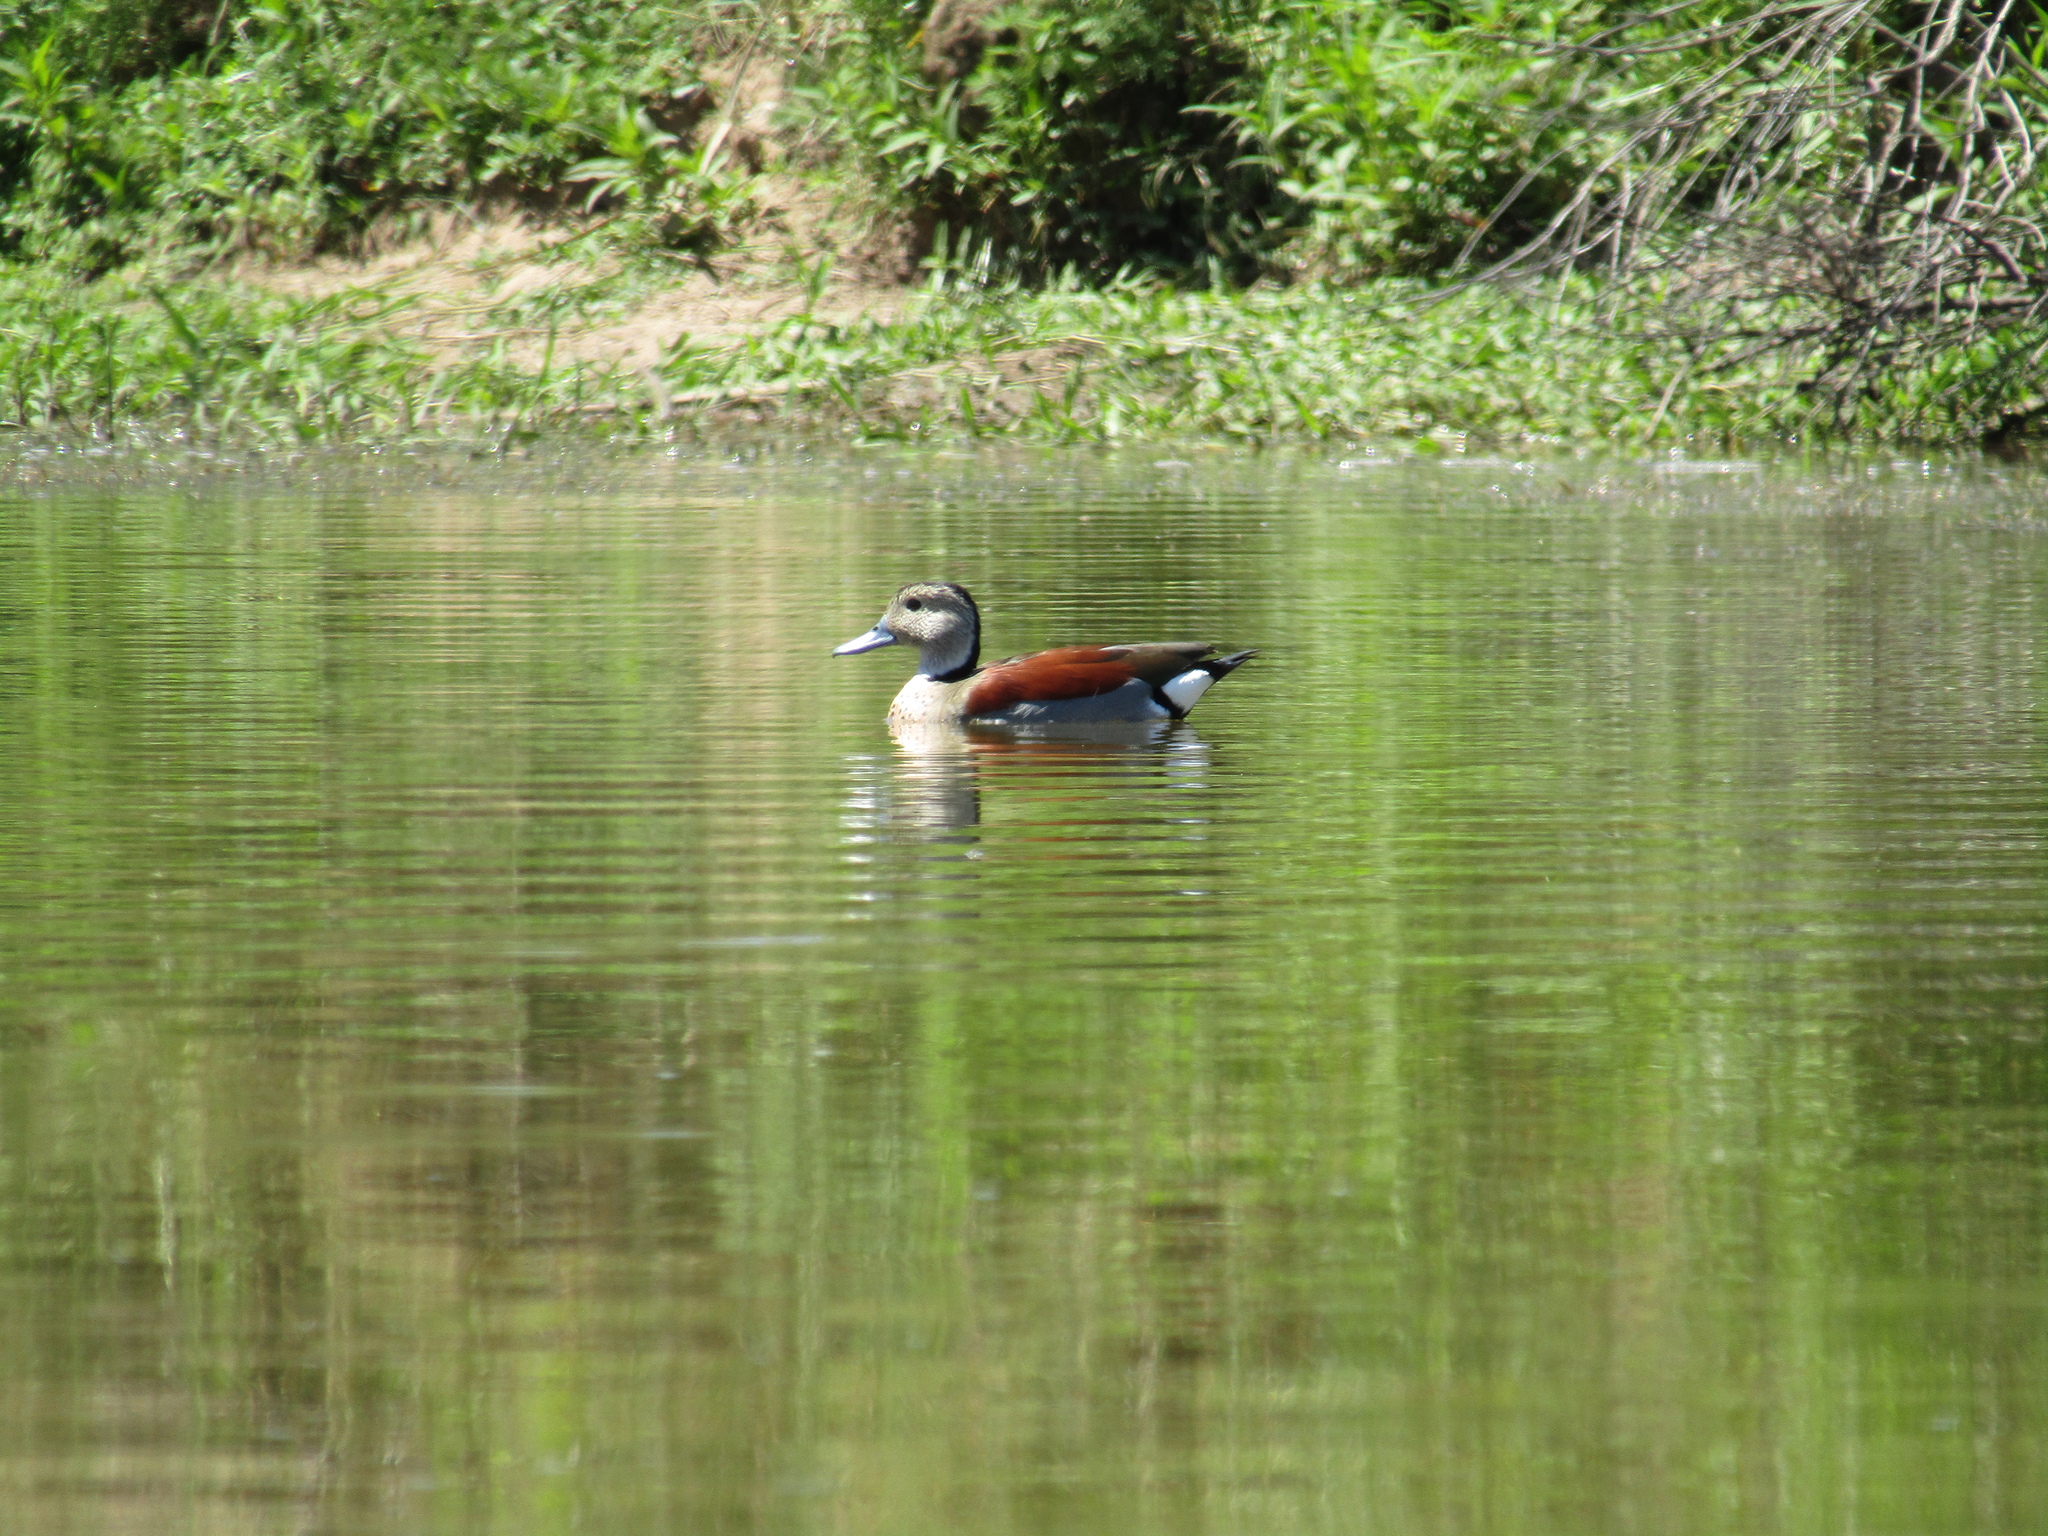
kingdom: Animalia
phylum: Chordata
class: Aves
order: Anseriformes
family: Anatidae
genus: Callonetta
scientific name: Callonetta leucophrys
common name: Ringed teal
